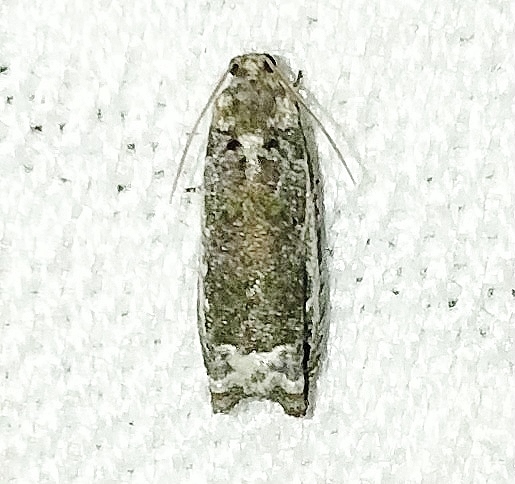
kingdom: Animalia
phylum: Arthropoda
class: Insecta
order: Lepidoptera
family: Tortricidae
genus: Proteoteras
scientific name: Proteoteras naracana
